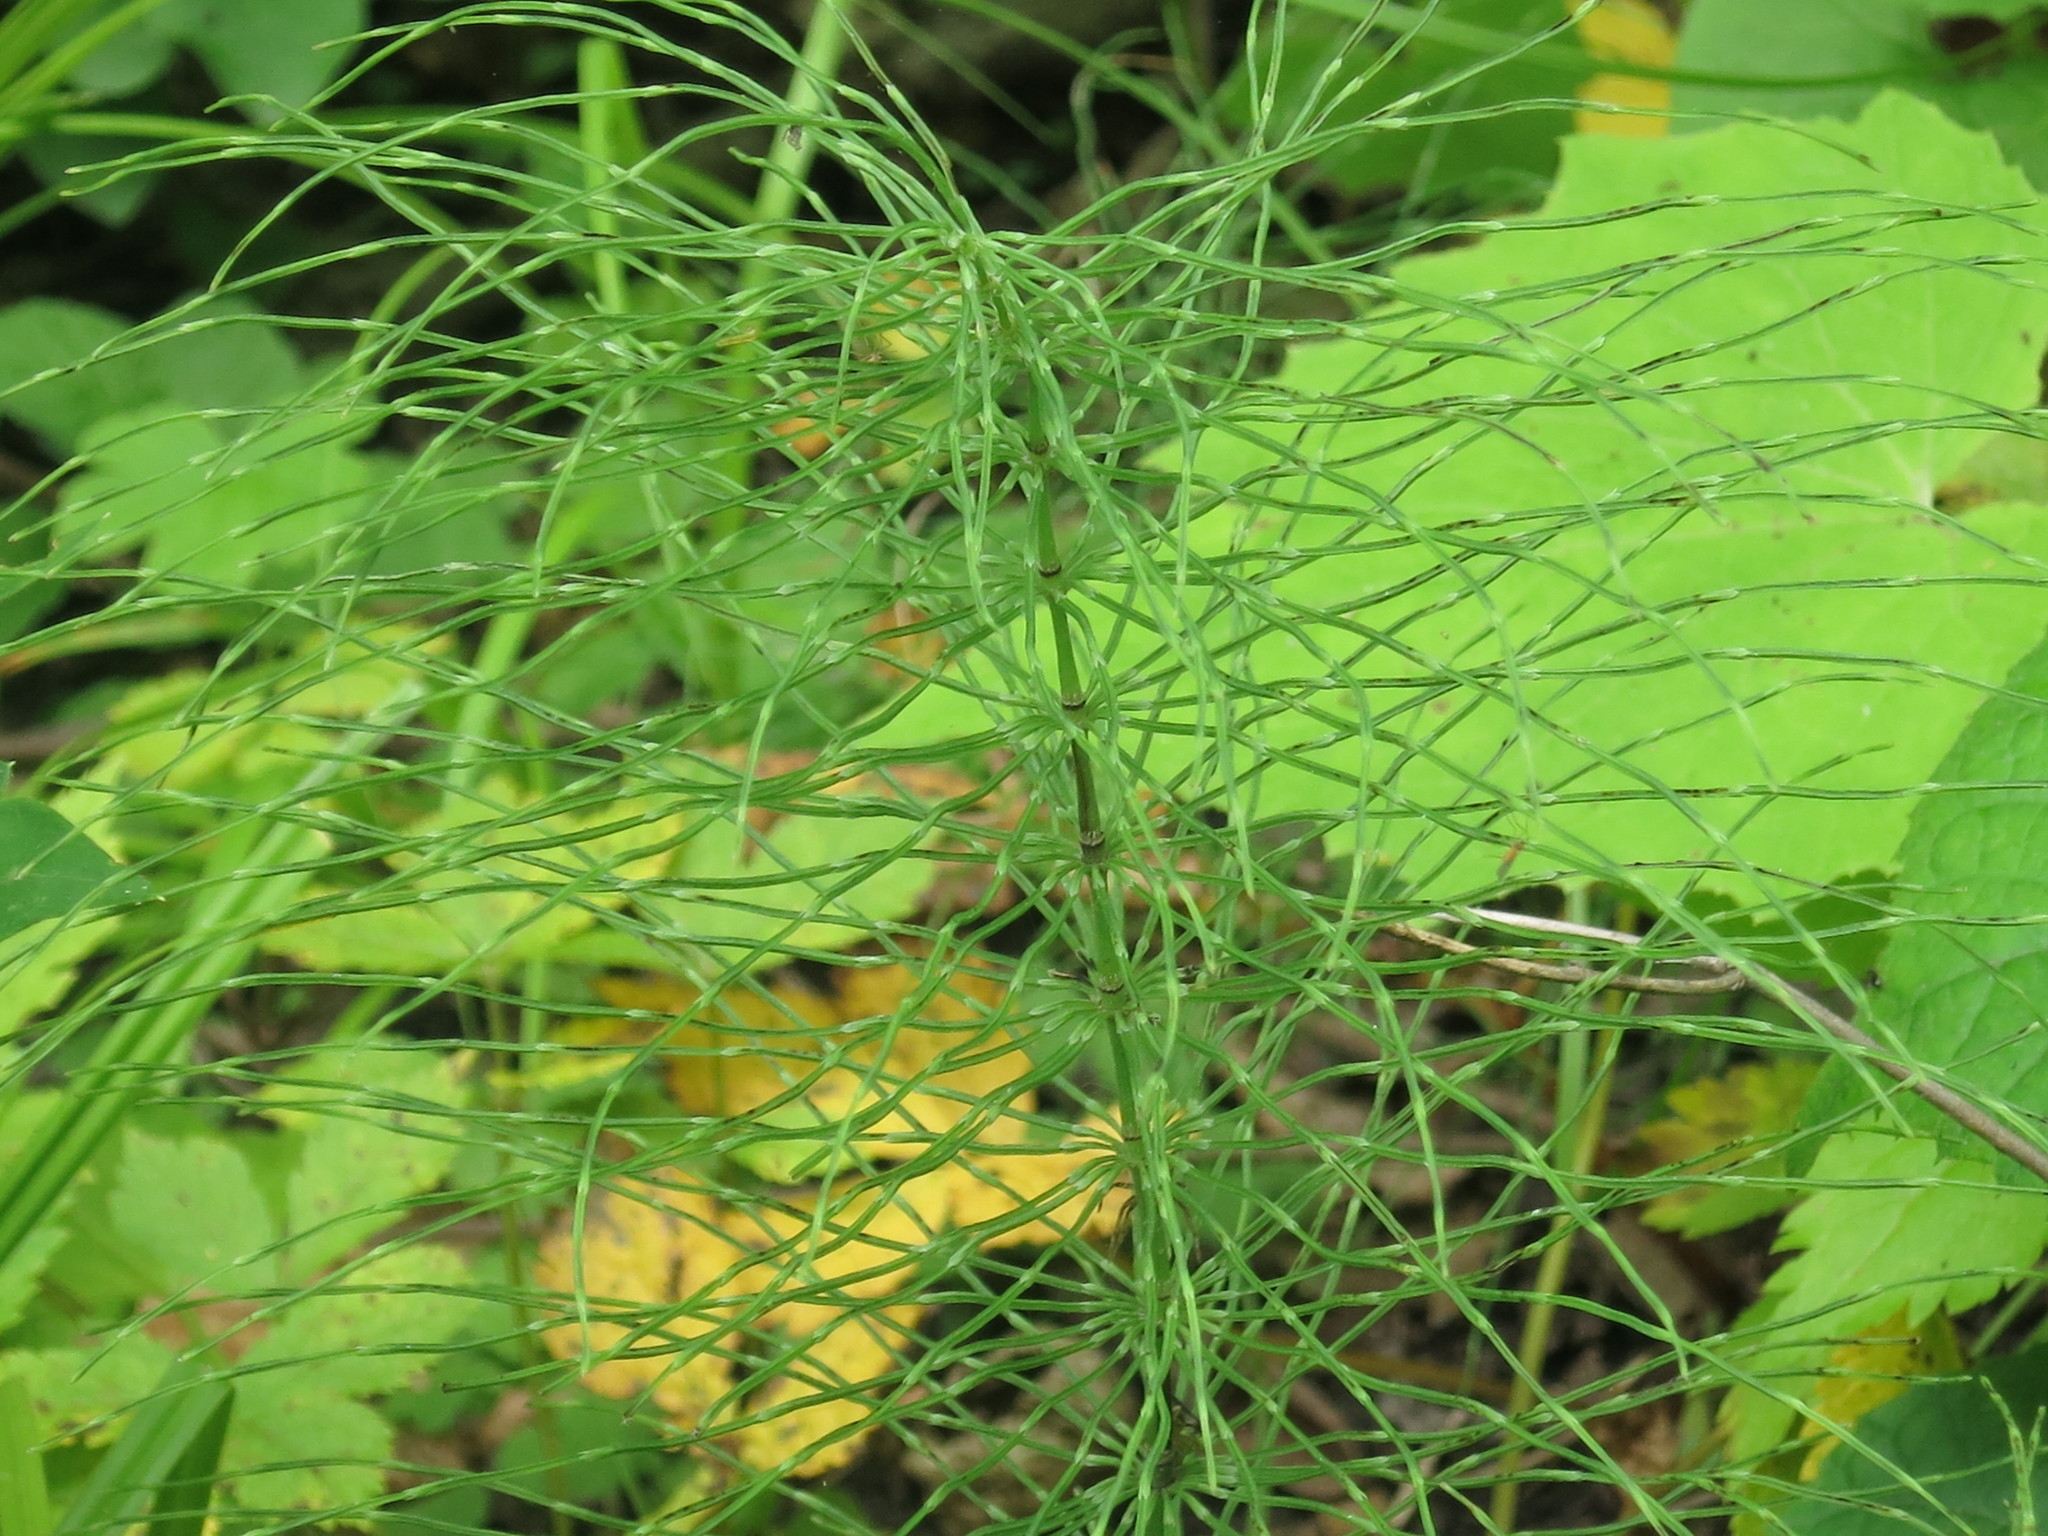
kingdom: Plantae
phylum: Tracheophyta
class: Polypodiopsida
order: Equisetales
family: Equisetaceae
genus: Equisetum
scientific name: Equisetum pratense
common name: Meadow horsetail
